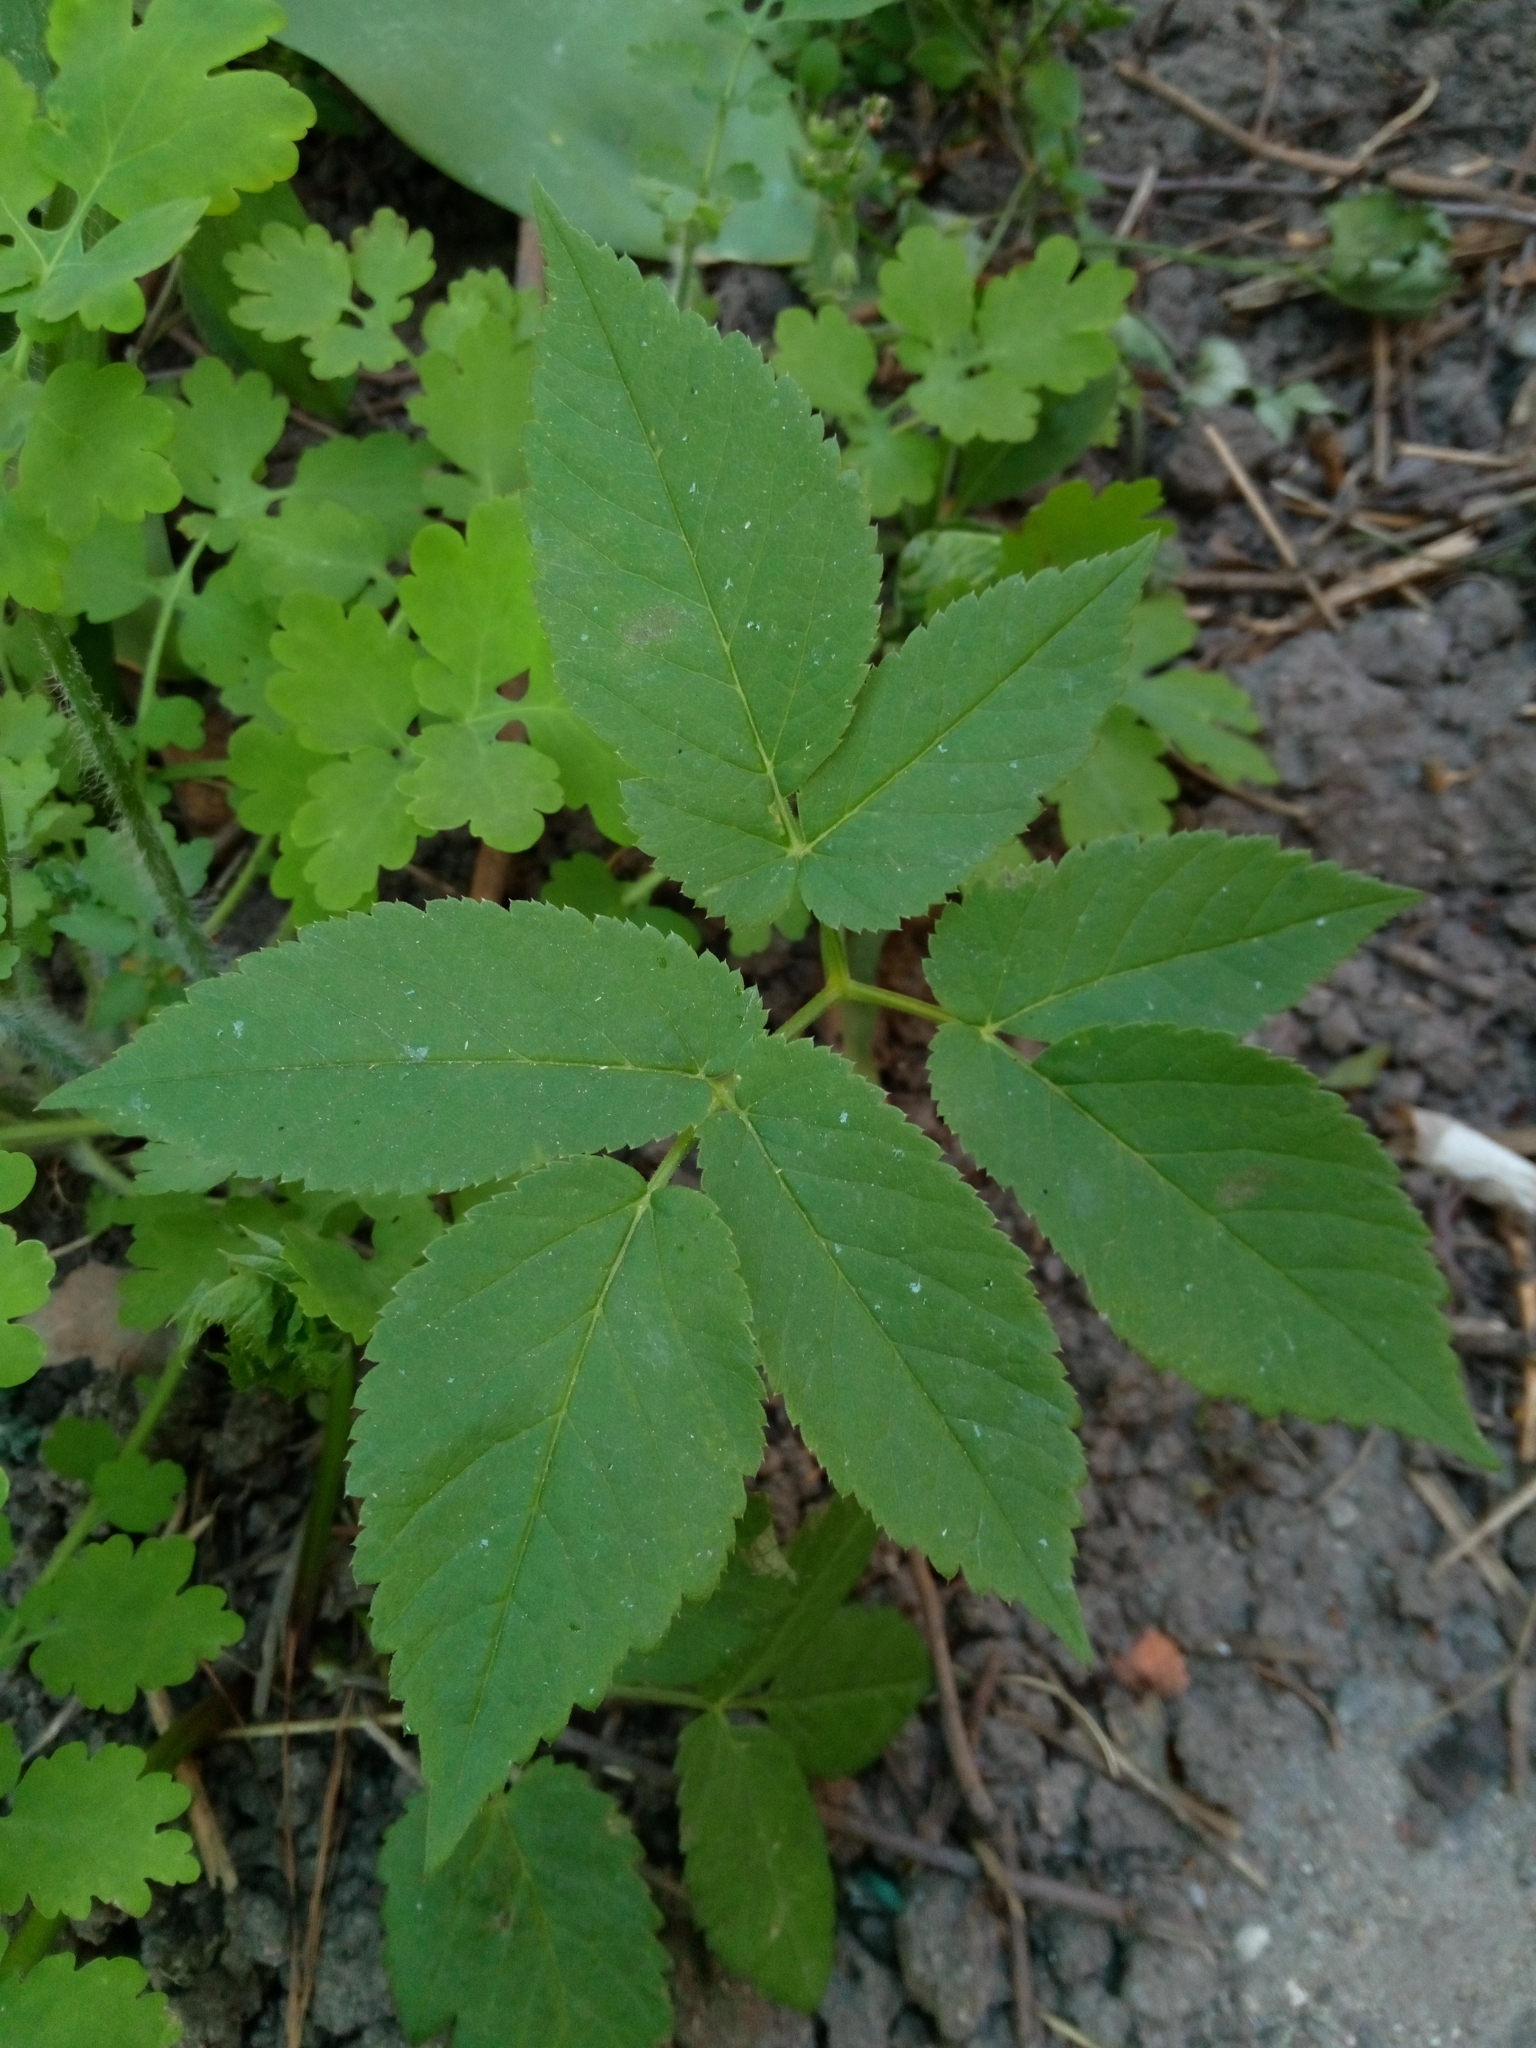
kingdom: Plantae
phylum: Tracheophyta
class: Magnoliopsida
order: Apiales
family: Apiaceae
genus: Aegopodium
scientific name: Aegopodium podagraria
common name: Ground-elder
